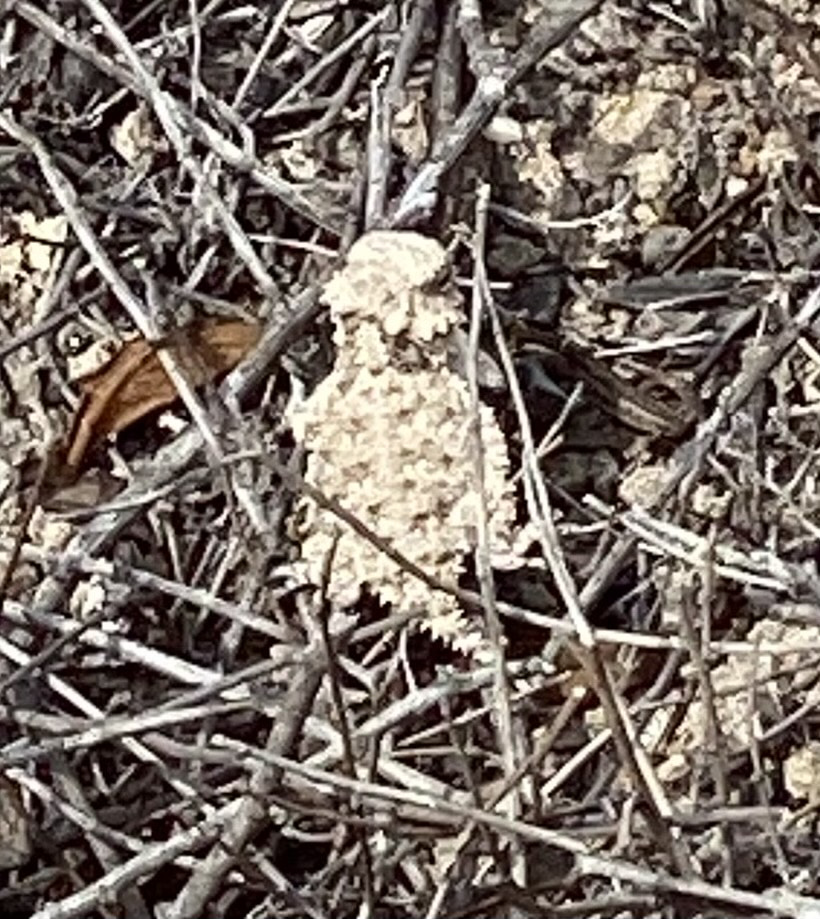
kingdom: Animalia
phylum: Chordata
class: Squamata
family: Phrynosomatidae
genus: Phrynosoma
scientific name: Phrynosoma blainvillii
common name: San diego horned lizard
